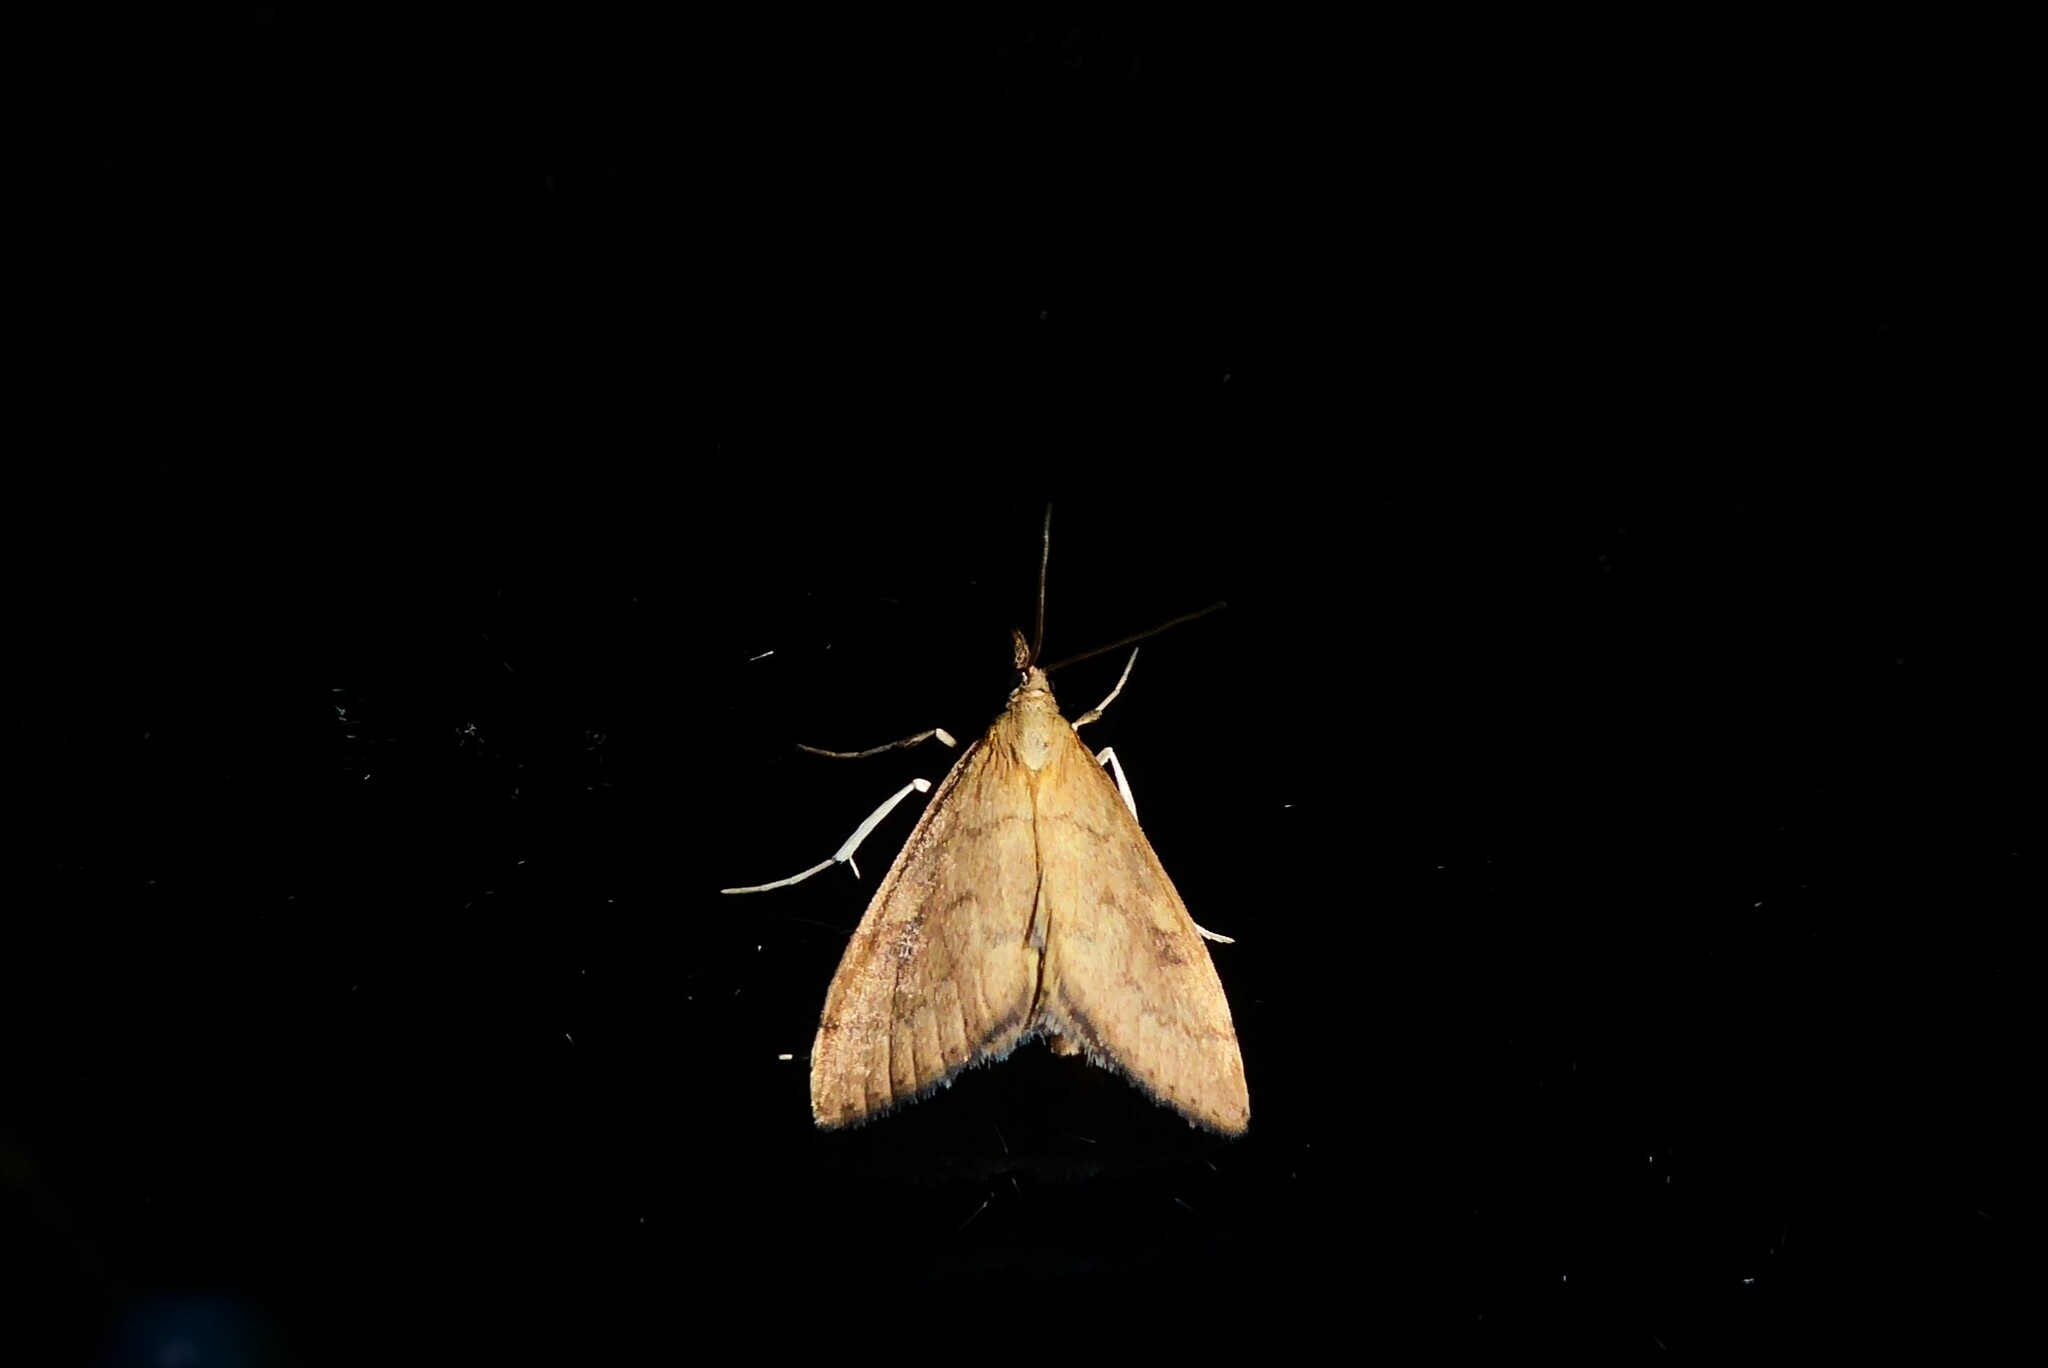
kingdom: Animalia
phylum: Arthropoda
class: Insecta
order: Lepidoptera
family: Crambidae
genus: Udea
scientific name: Udea Mnesictena flavidalis
